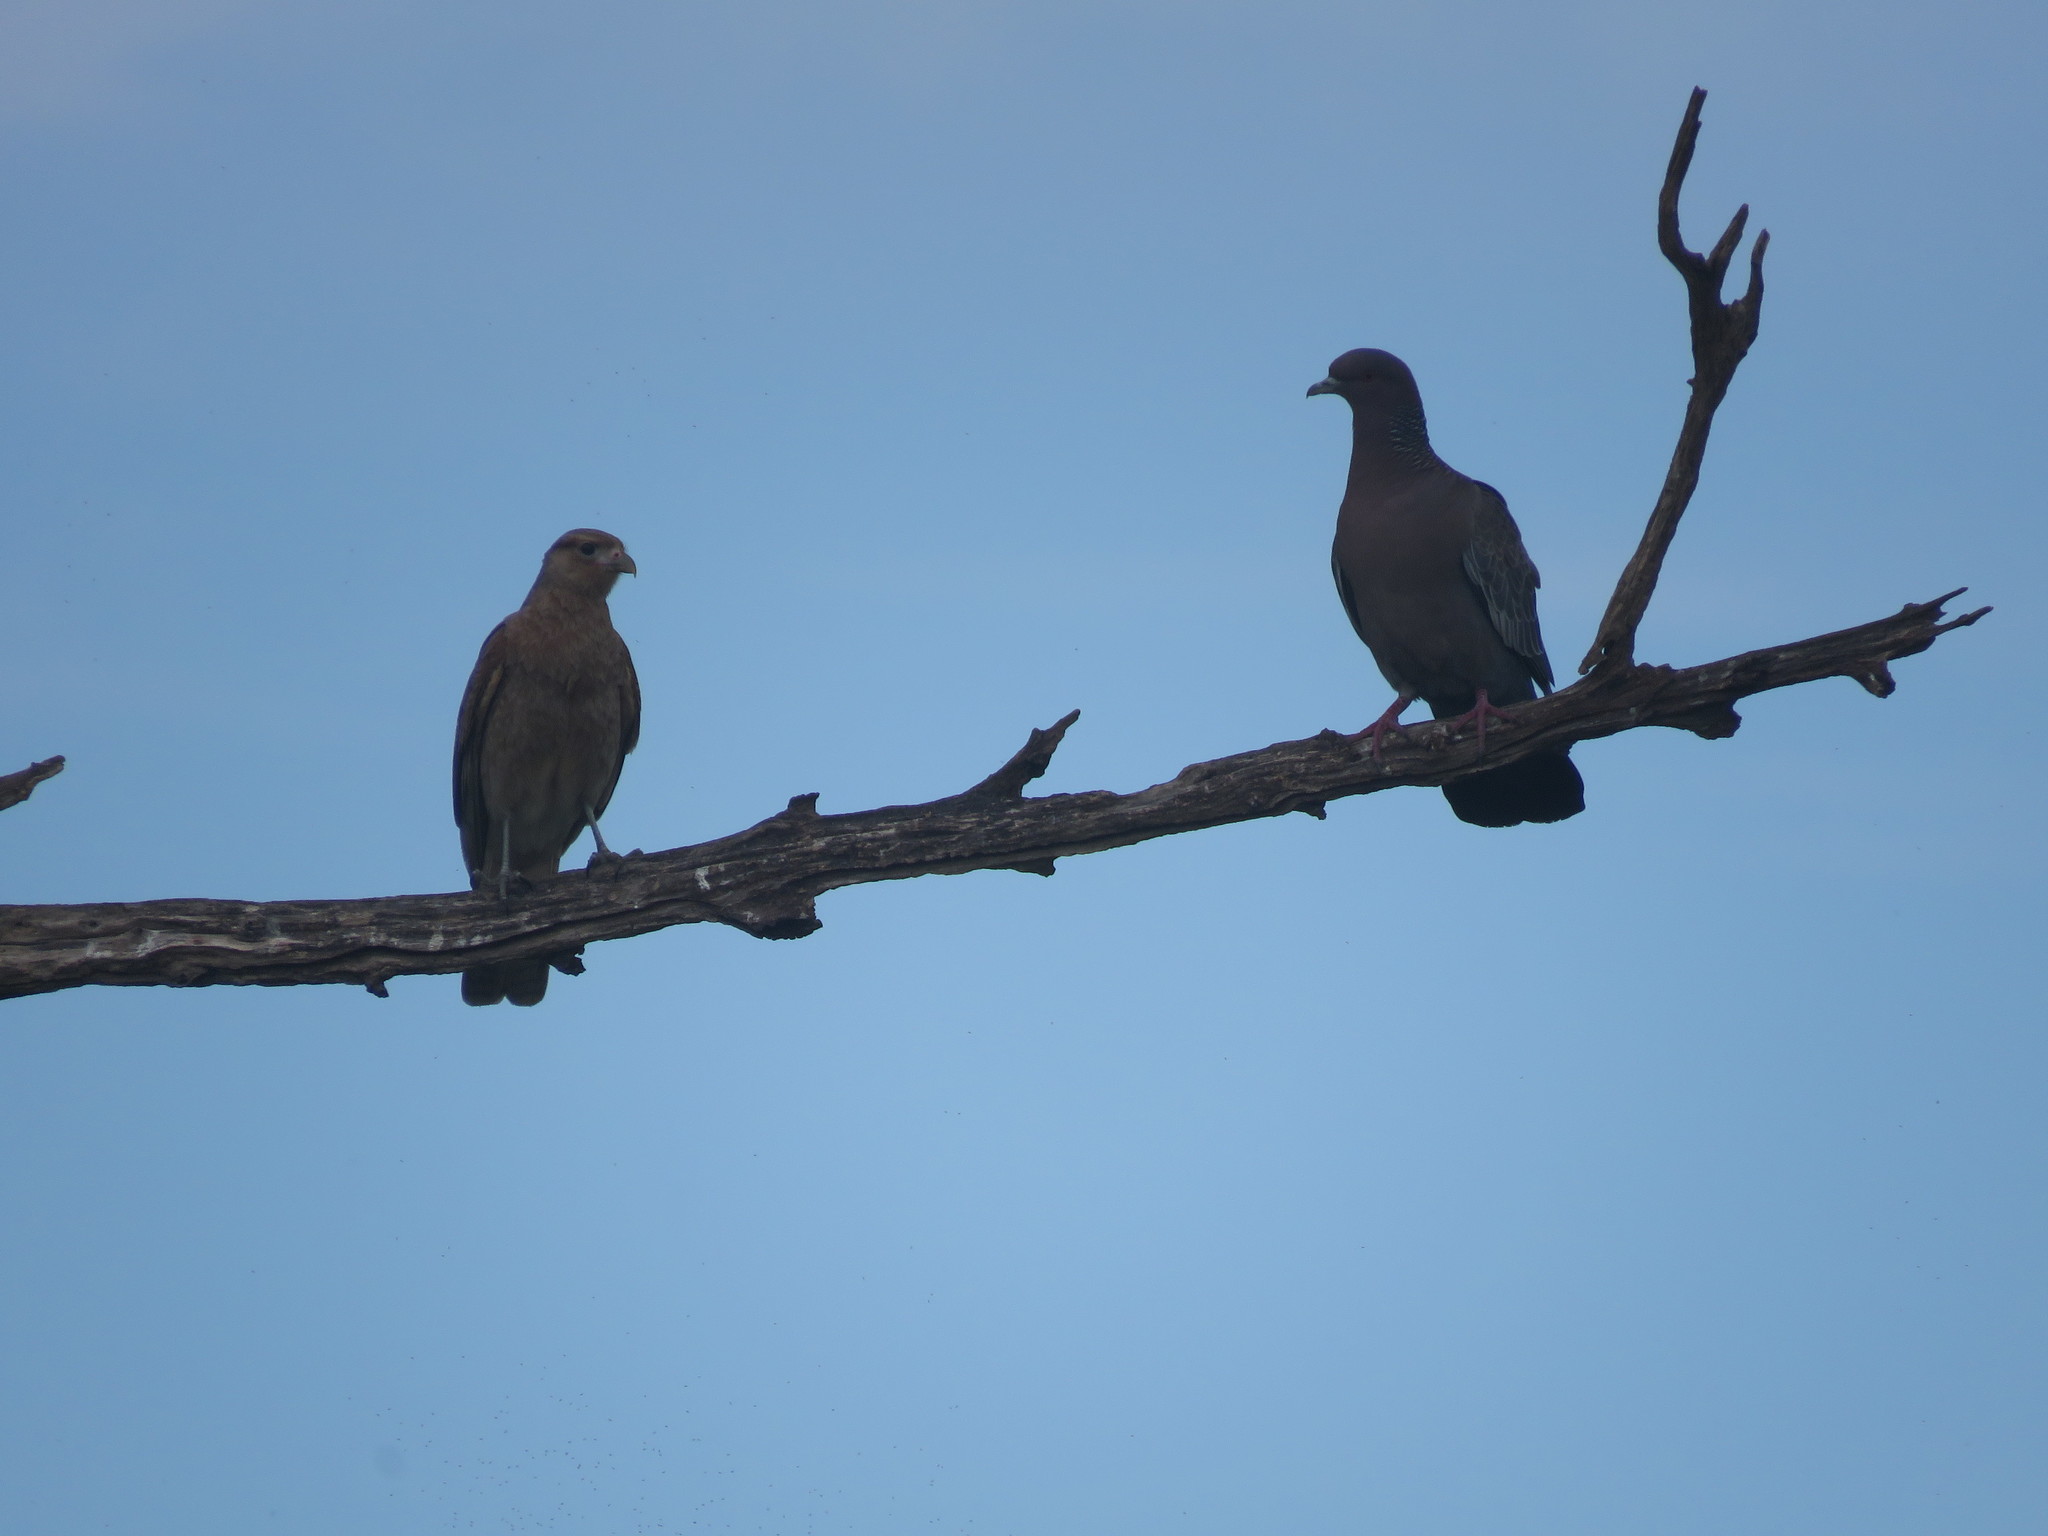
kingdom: Animalia
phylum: Chordata
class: Aves
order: Columbiformes
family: Columbidae
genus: Patagioenas
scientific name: Patagioenas picazuro
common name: Picazuro pigeon
